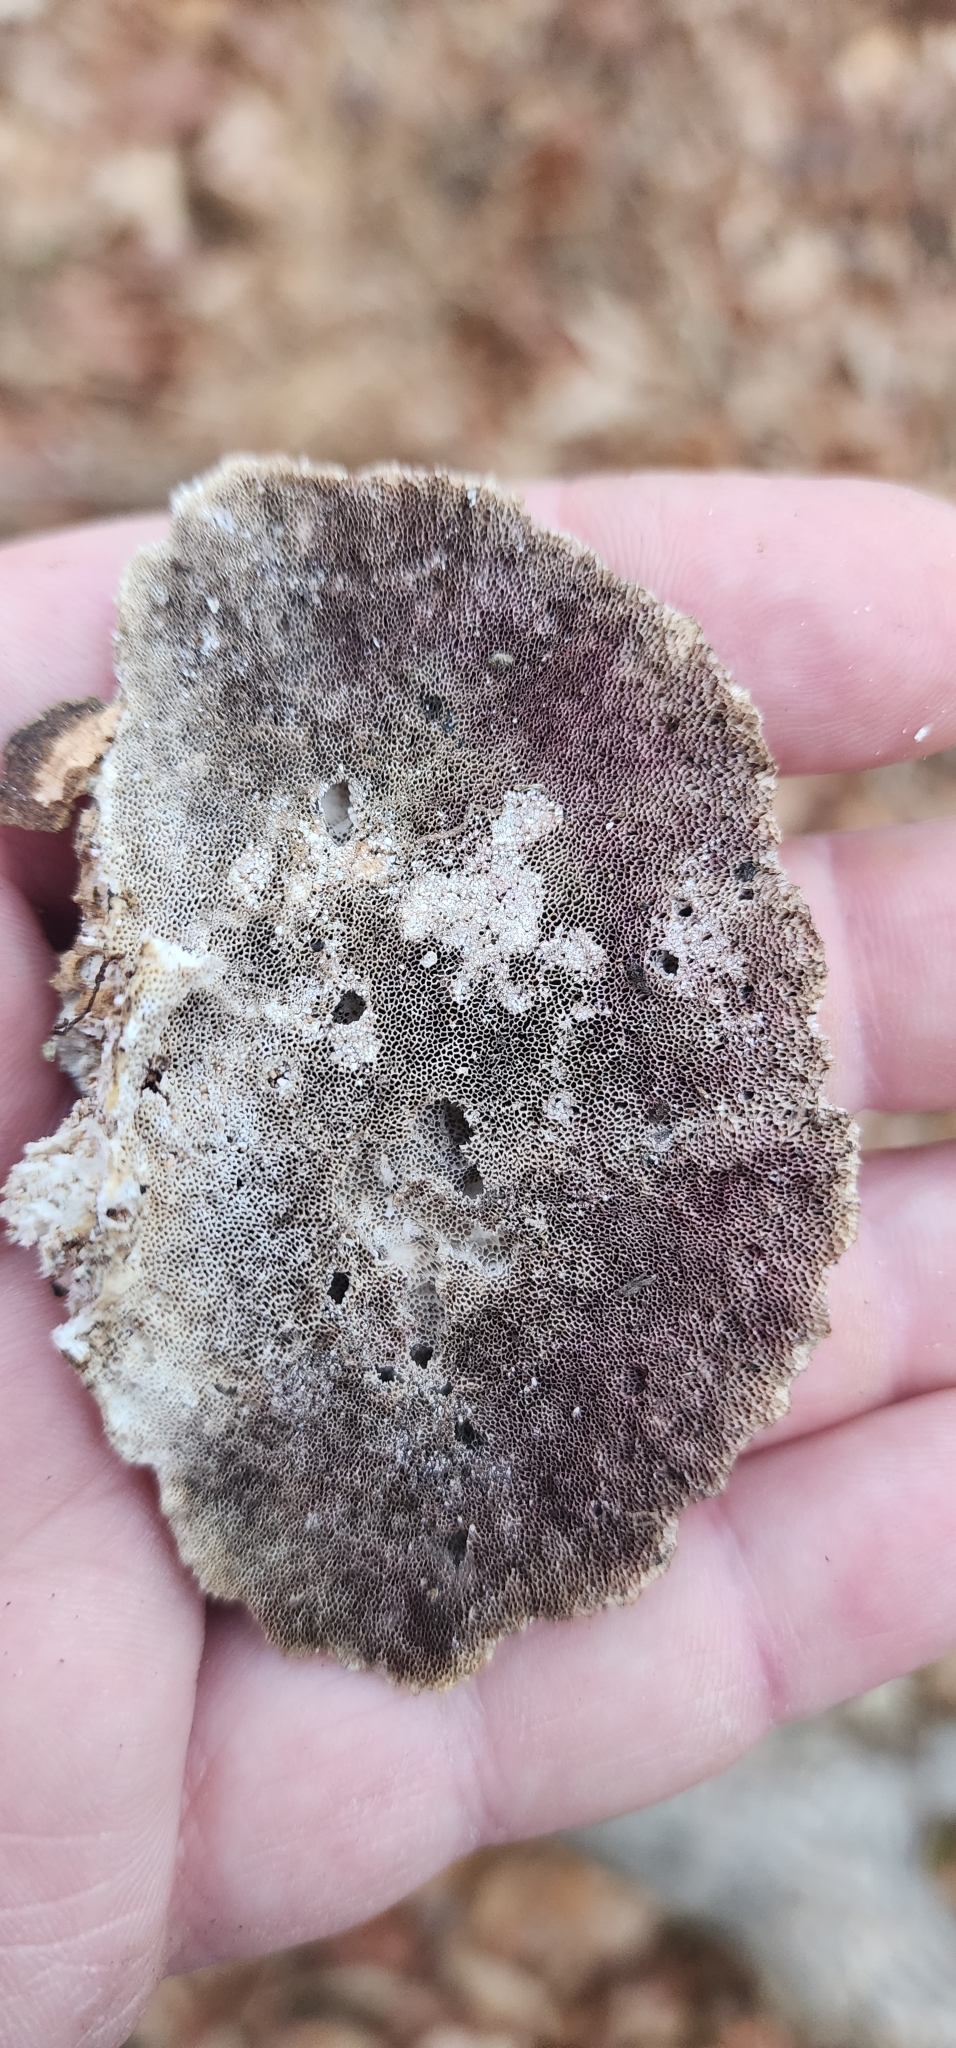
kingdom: Fungi
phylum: Basidiomycota
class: Agaricomycetes
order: Hymenochaetales
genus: Trichaptum
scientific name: Trichaptum abietinum
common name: Purplepore bracket
